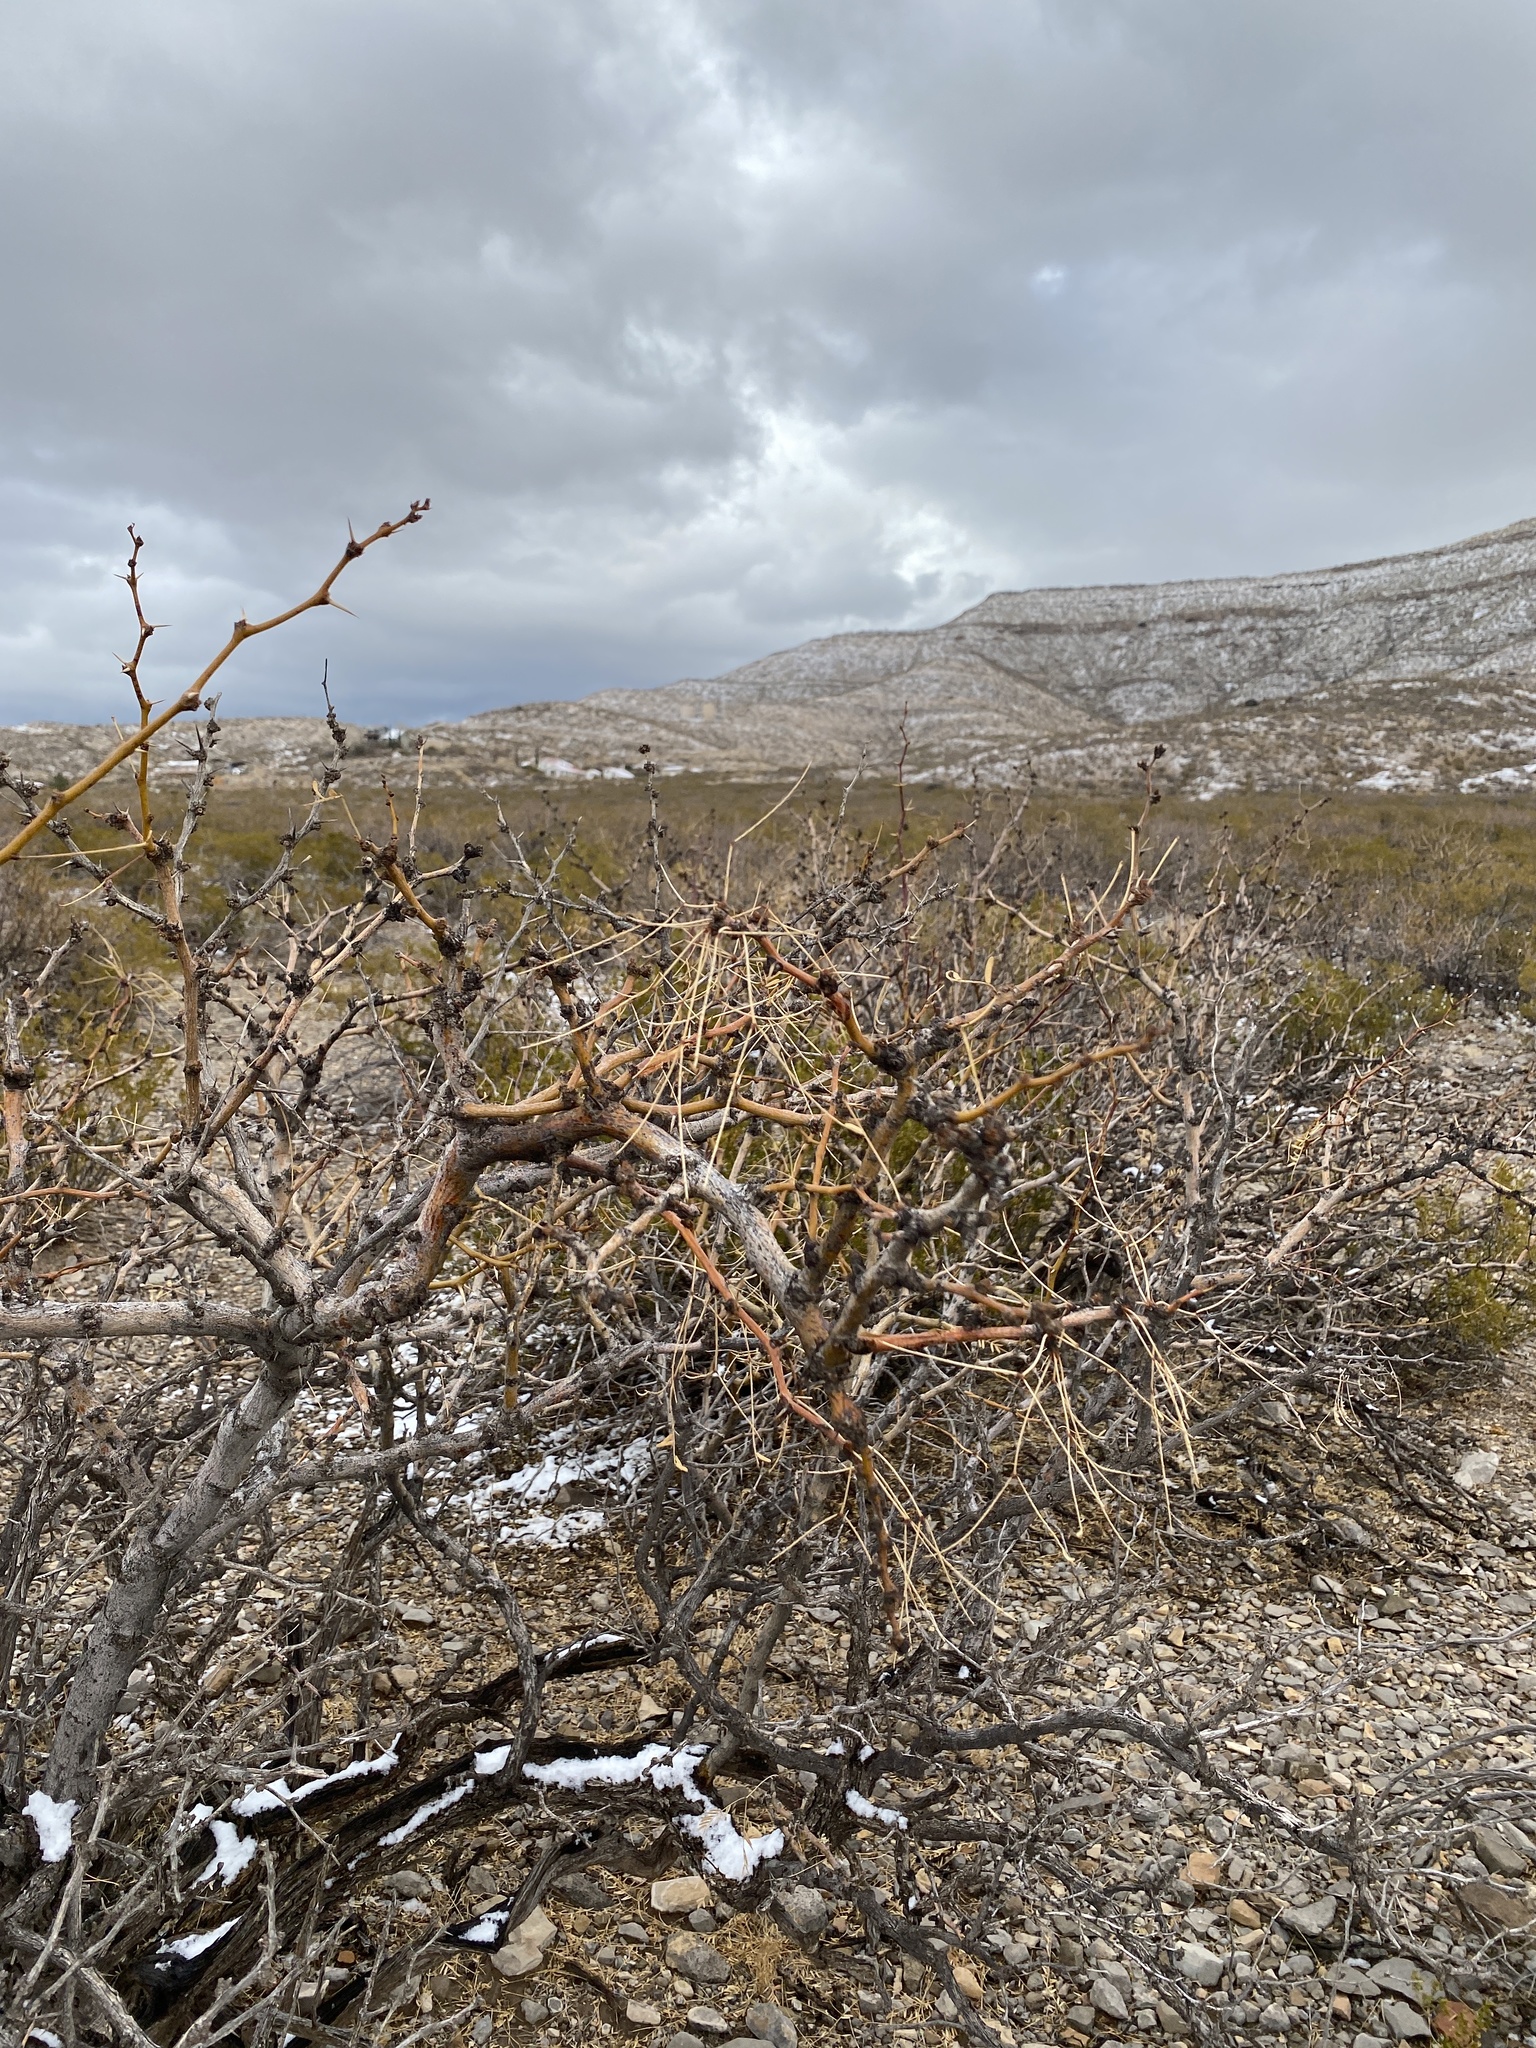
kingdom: Plantae
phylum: Tracheophyta
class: Magnoliopsida
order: Fabales
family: Fabaceae
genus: Prosopis
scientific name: Prosopis glandulosa
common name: Honey mesquite
